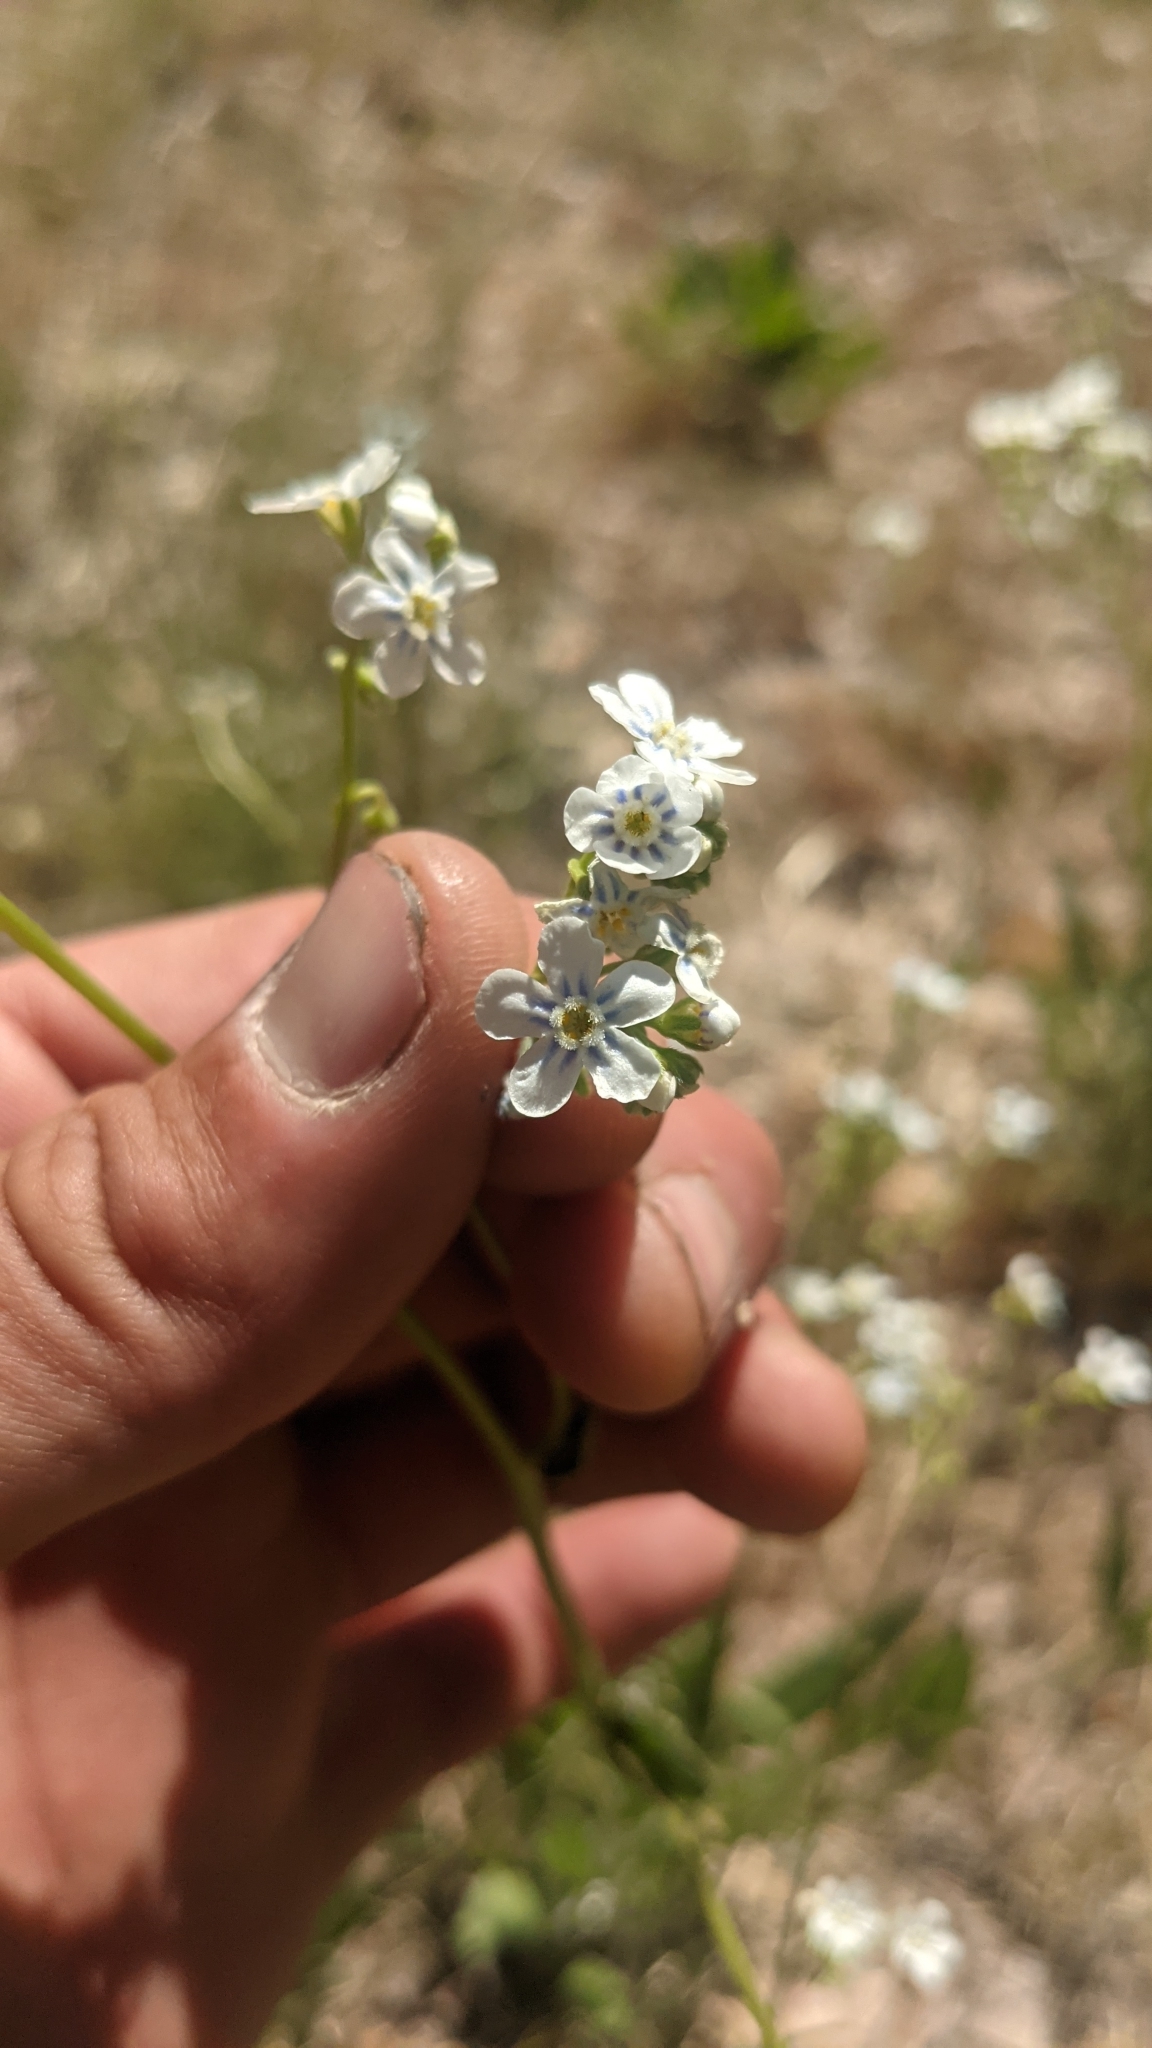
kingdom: Plantae
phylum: Tracheophyta
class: Magnoliopsida
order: Boraginales
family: Boraginaceae
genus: Hackelia
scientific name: Hackelia patens
